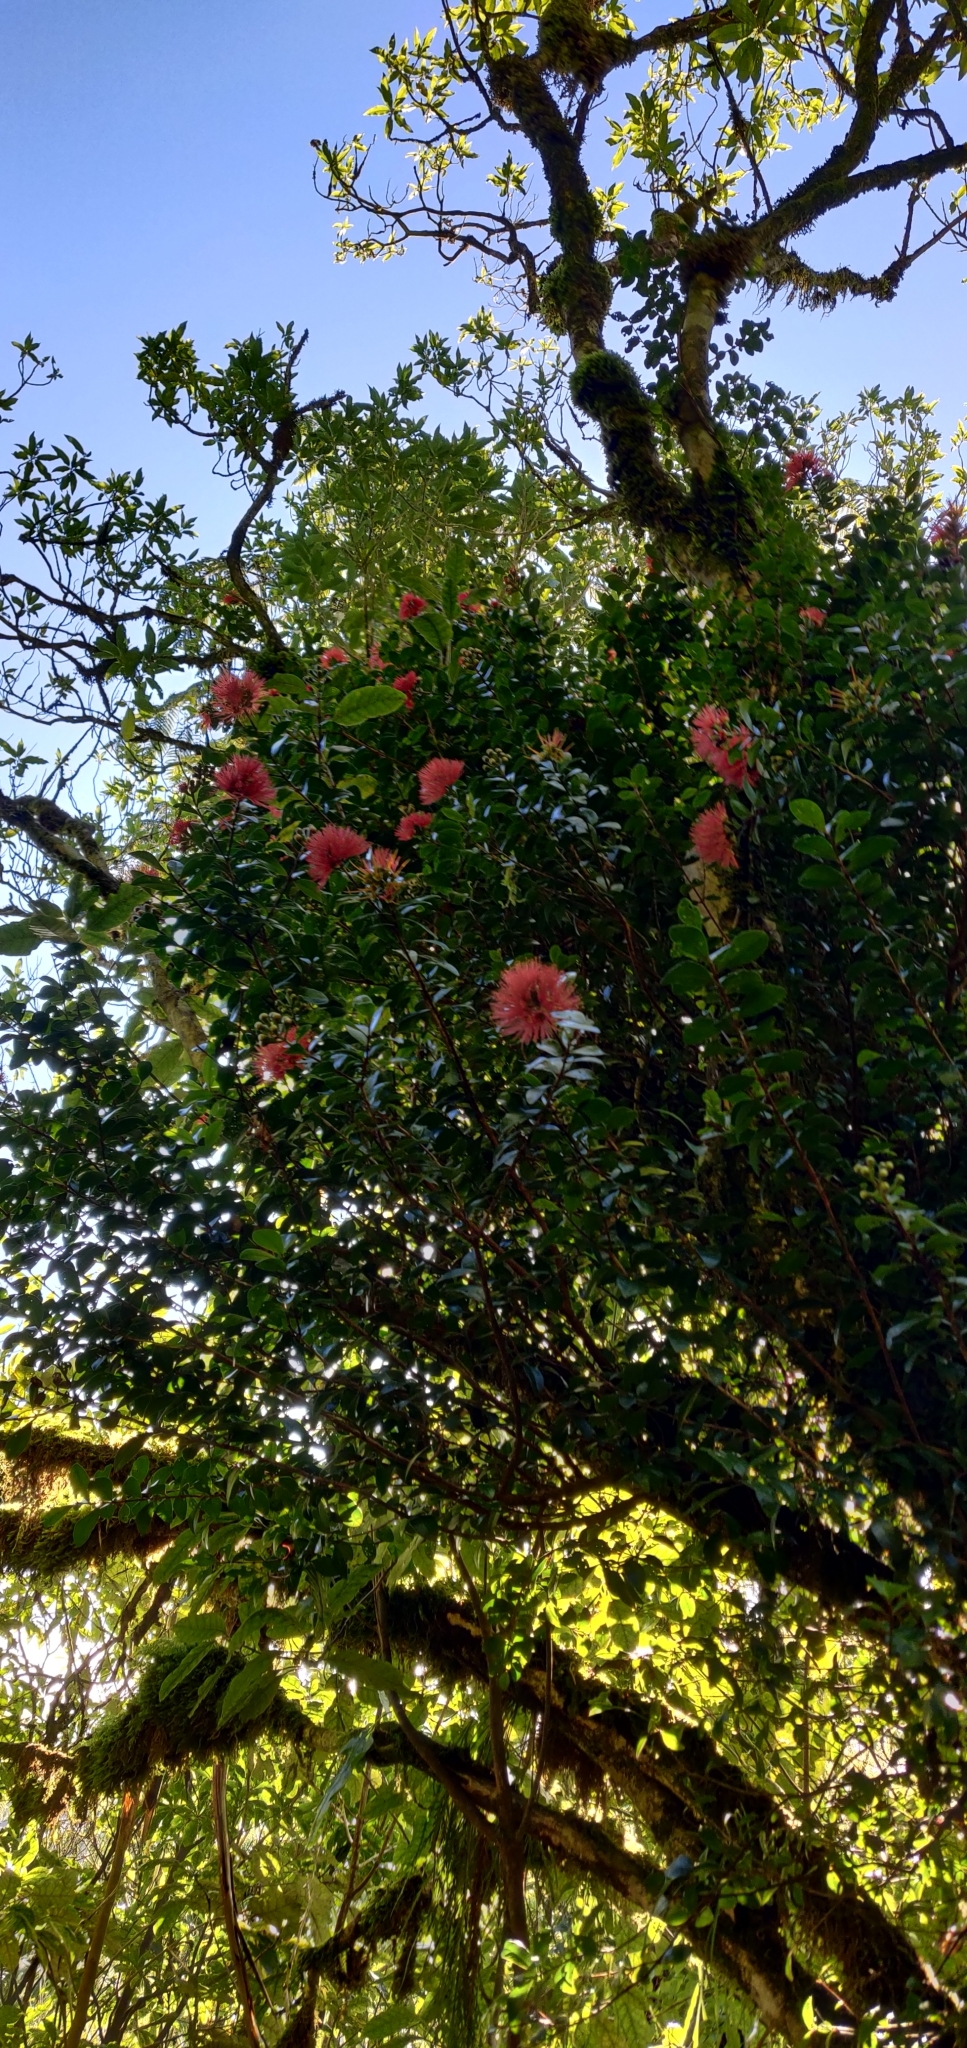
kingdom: Plantae
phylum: Tracheophyta
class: Magnoliopsida
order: Myrtales
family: Myrtaceae
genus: Metrosideros
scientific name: Metrosideros fulgens
